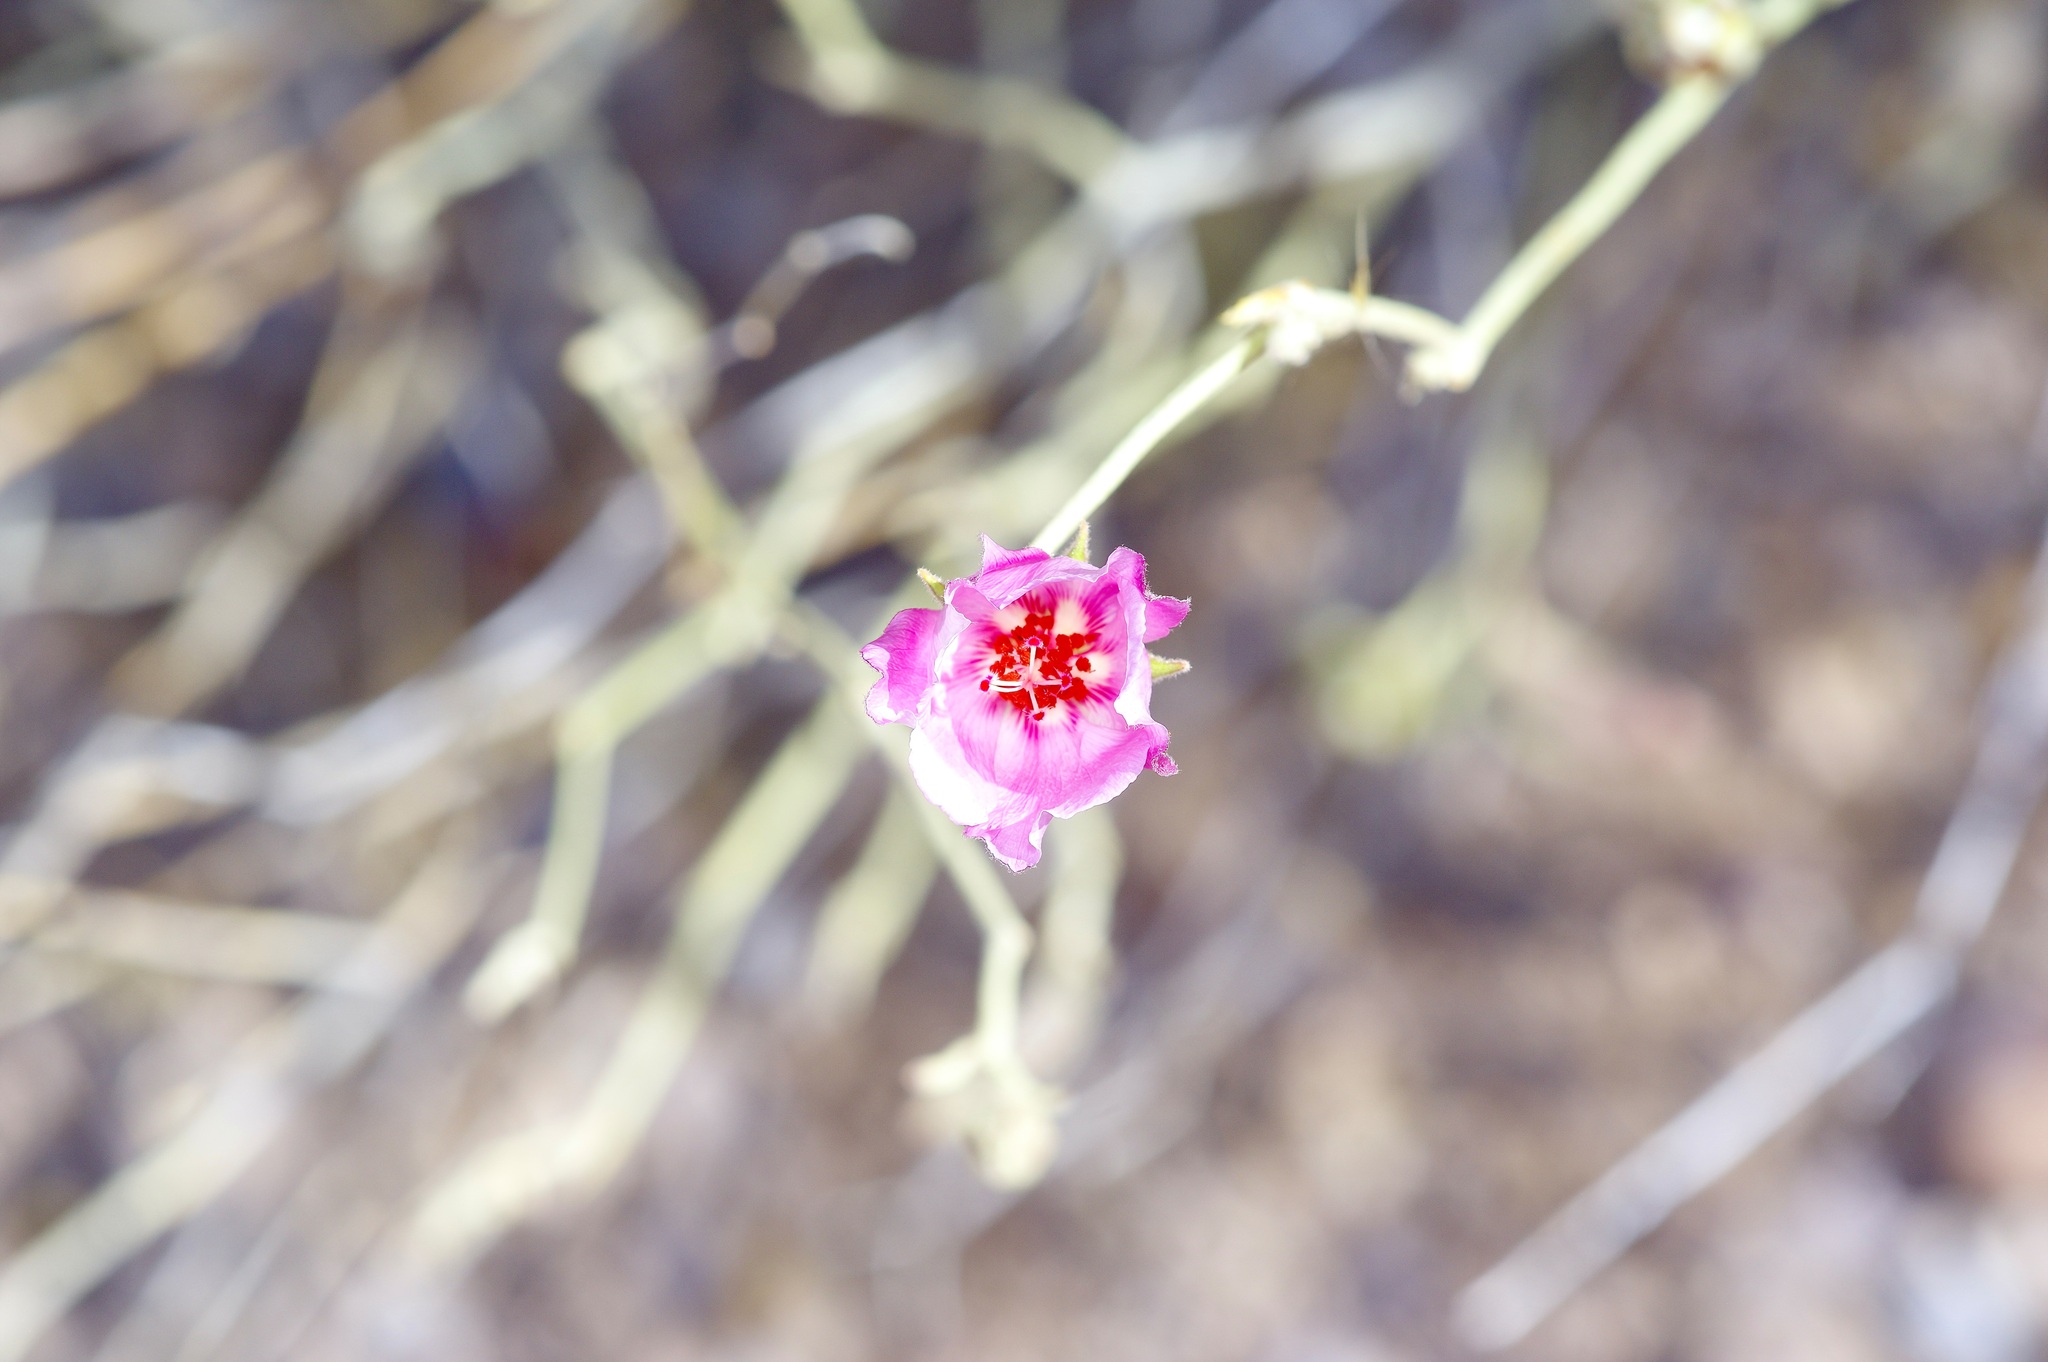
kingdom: Plantae
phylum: Tracheophyta
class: Magnoliopsida
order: Malvales
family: Malvaceae
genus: Hibiscus
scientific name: Hibiscus denudatus
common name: Paleface
